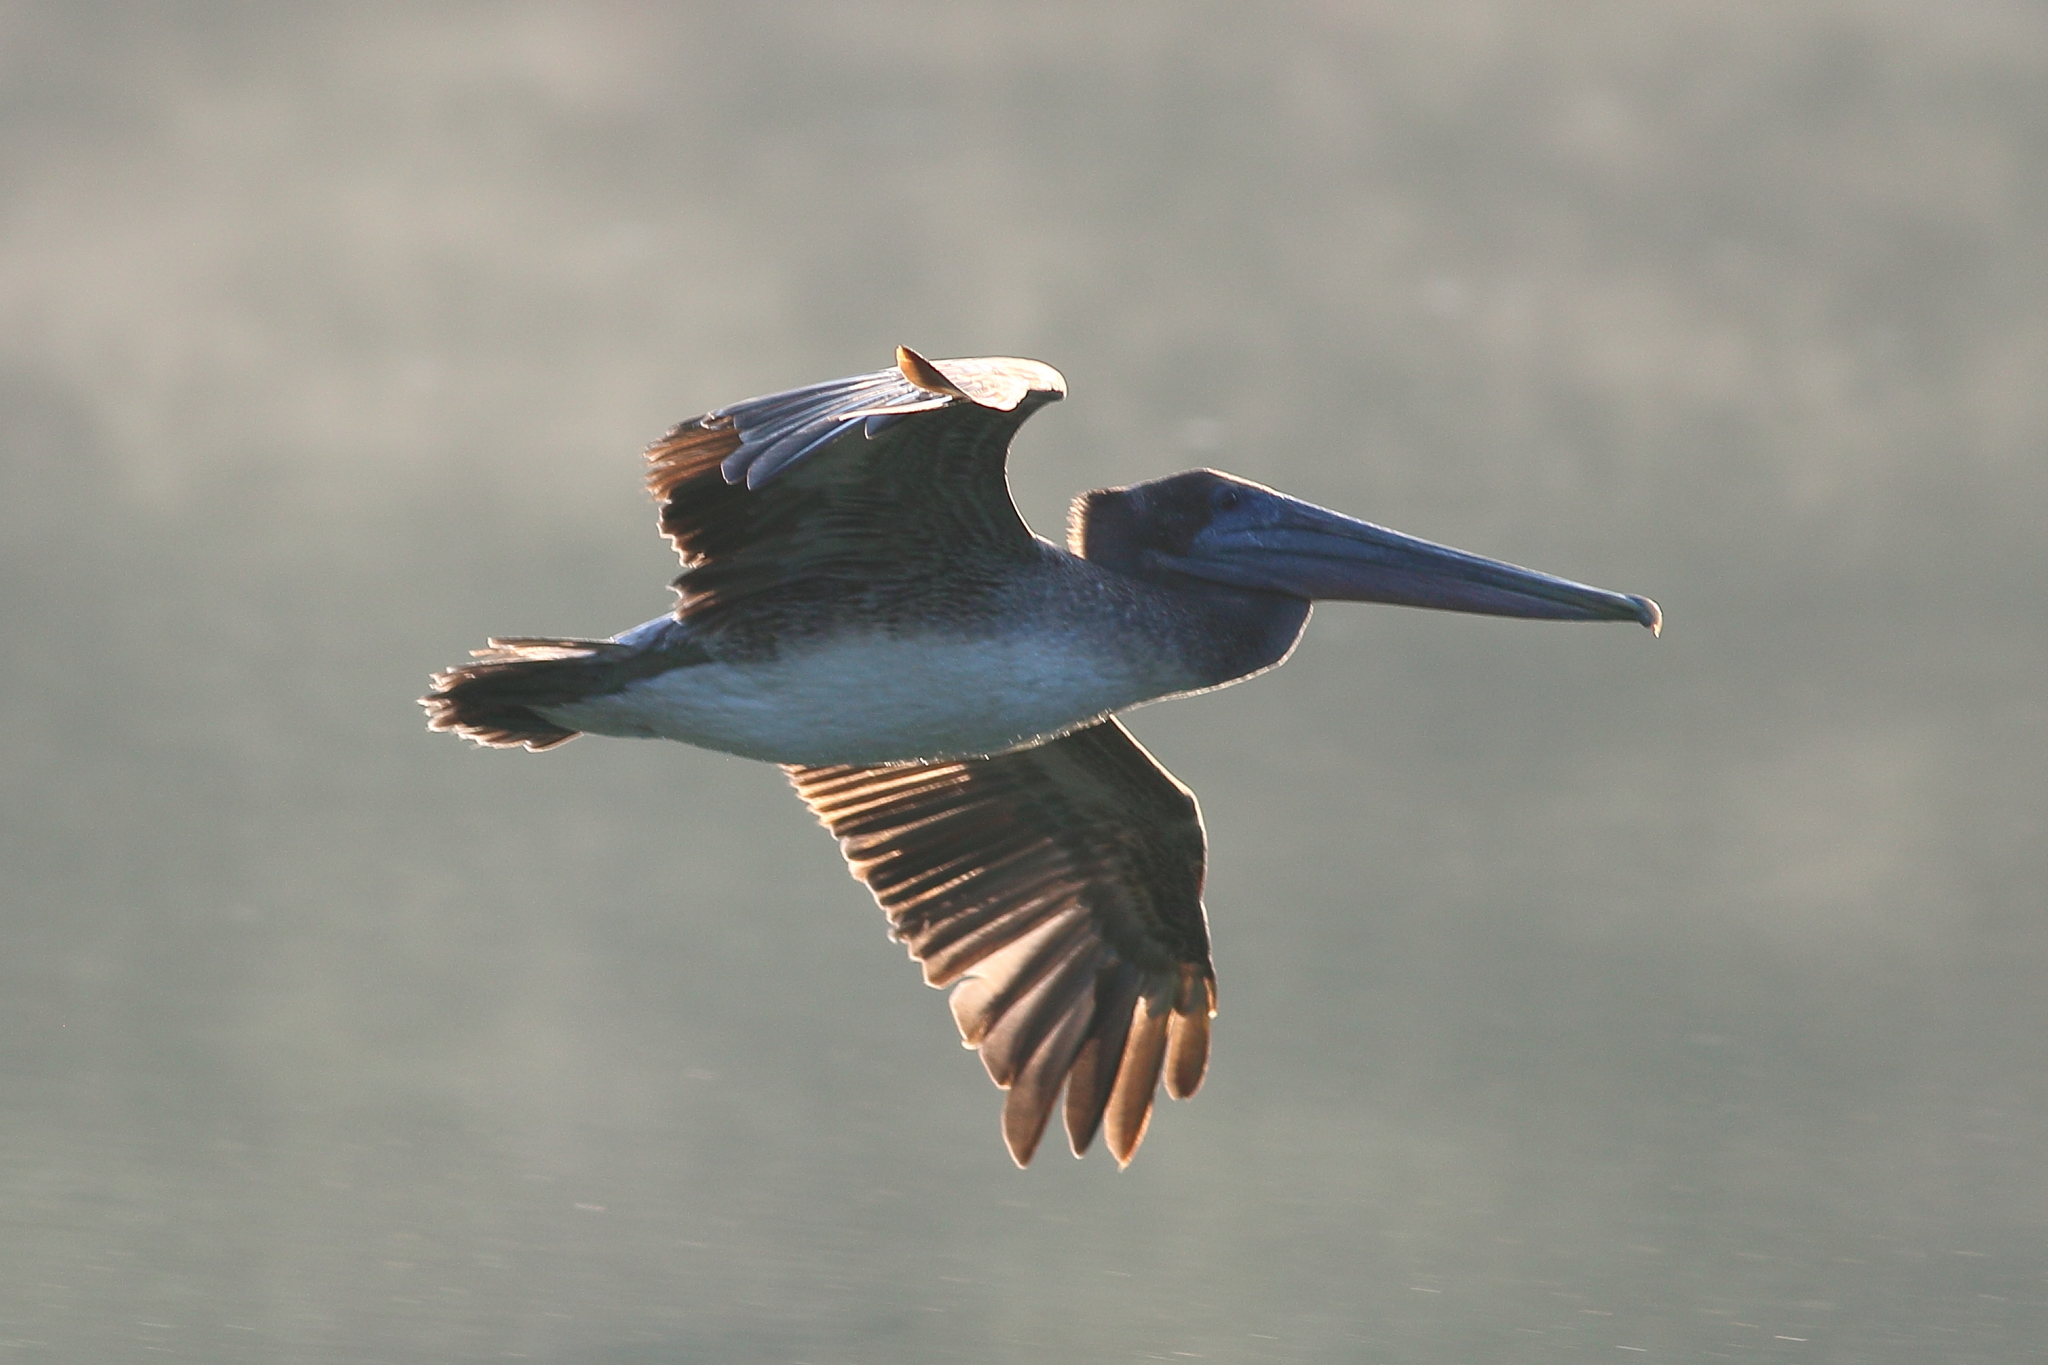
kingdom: Animalia
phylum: Chordata
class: Aves
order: Pelecaniformes
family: Pelecanidae
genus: Pelecanus
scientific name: Pelecanus occidentalis
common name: Brown pelican
